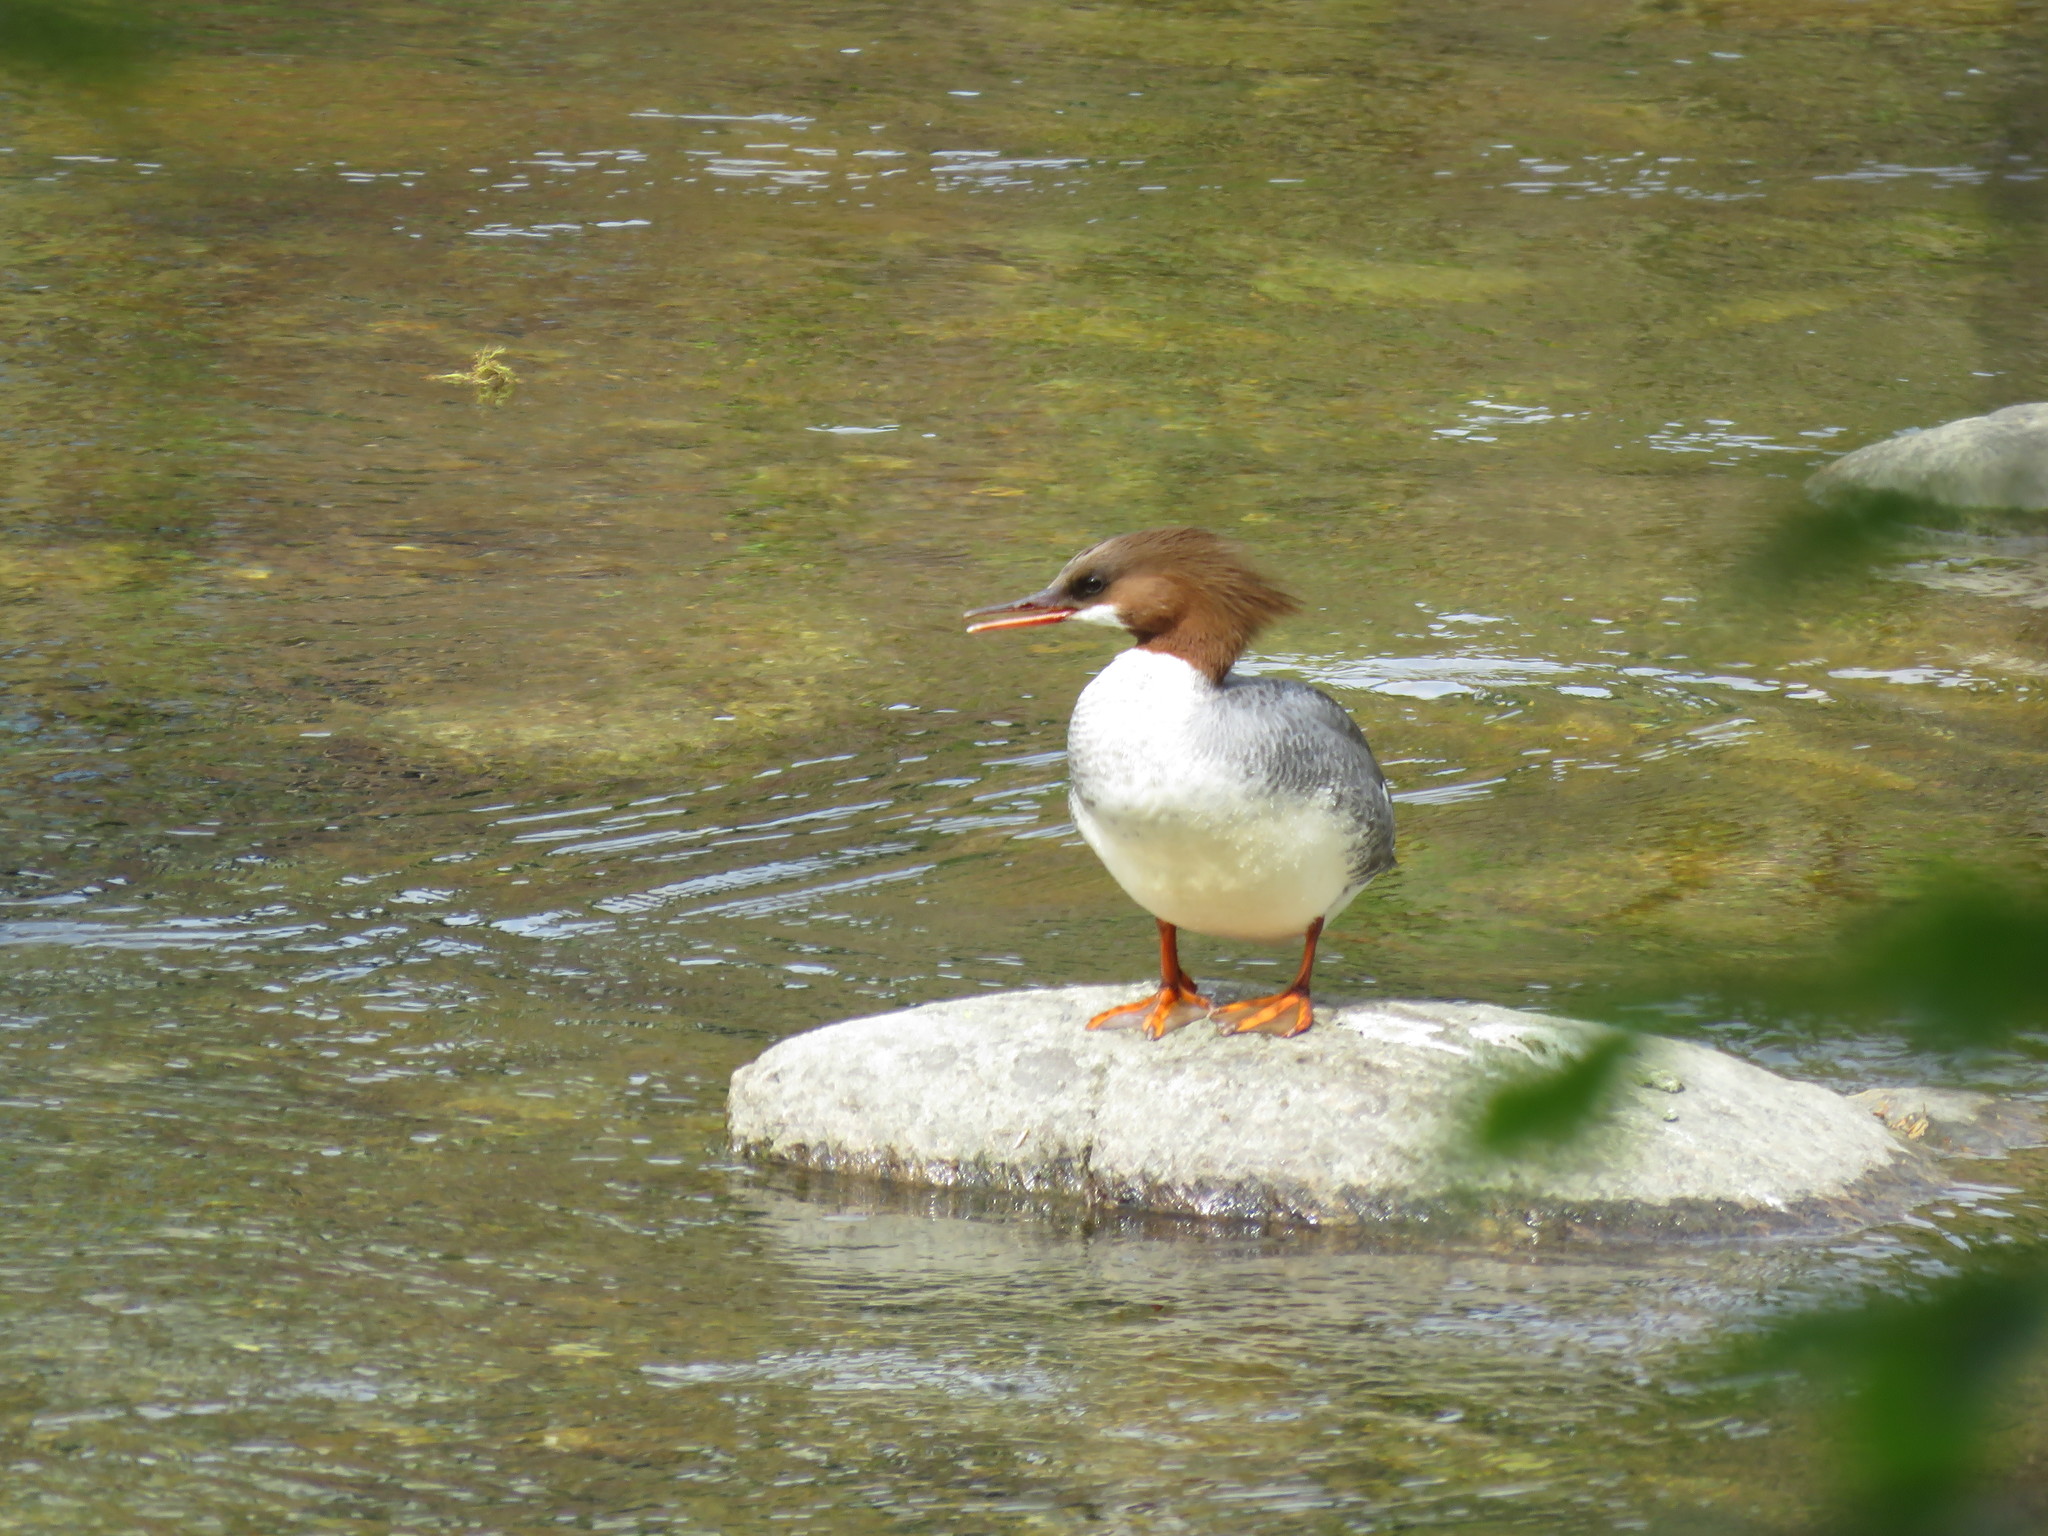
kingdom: Animalia
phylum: Chordata
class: Aves
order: Anseriformes
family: Anatidae
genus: Mergus
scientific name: Mergus merganser
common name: Common merganser
